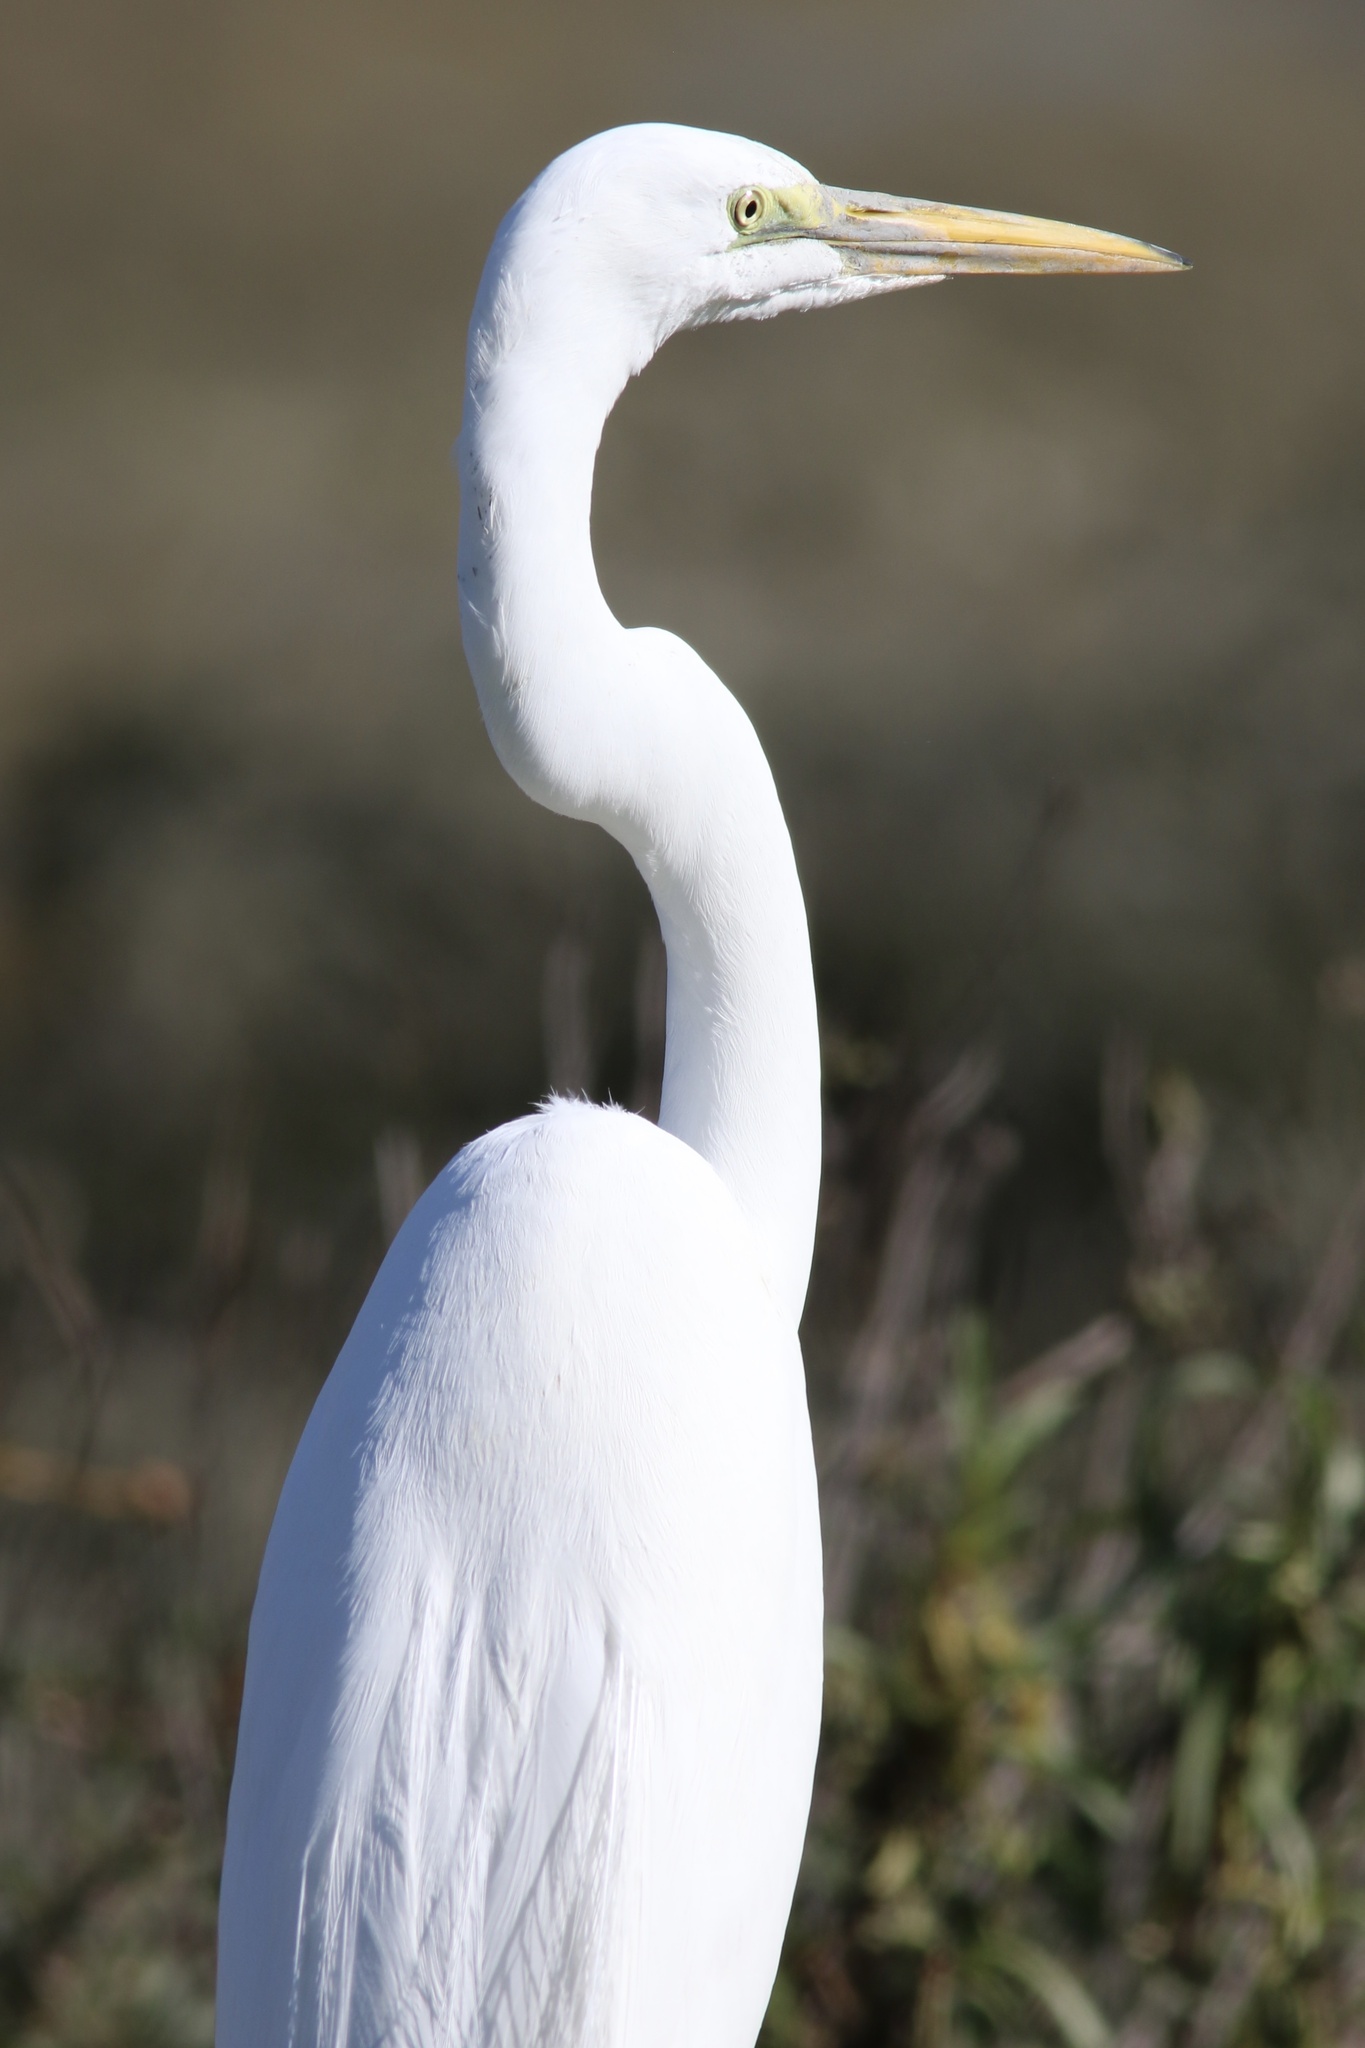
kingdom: Animalia
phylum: Chordata
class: Aves
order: Pelecaniformes
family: Ardeidae
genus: Ardea
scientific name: Ardea alba
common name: Great egret
